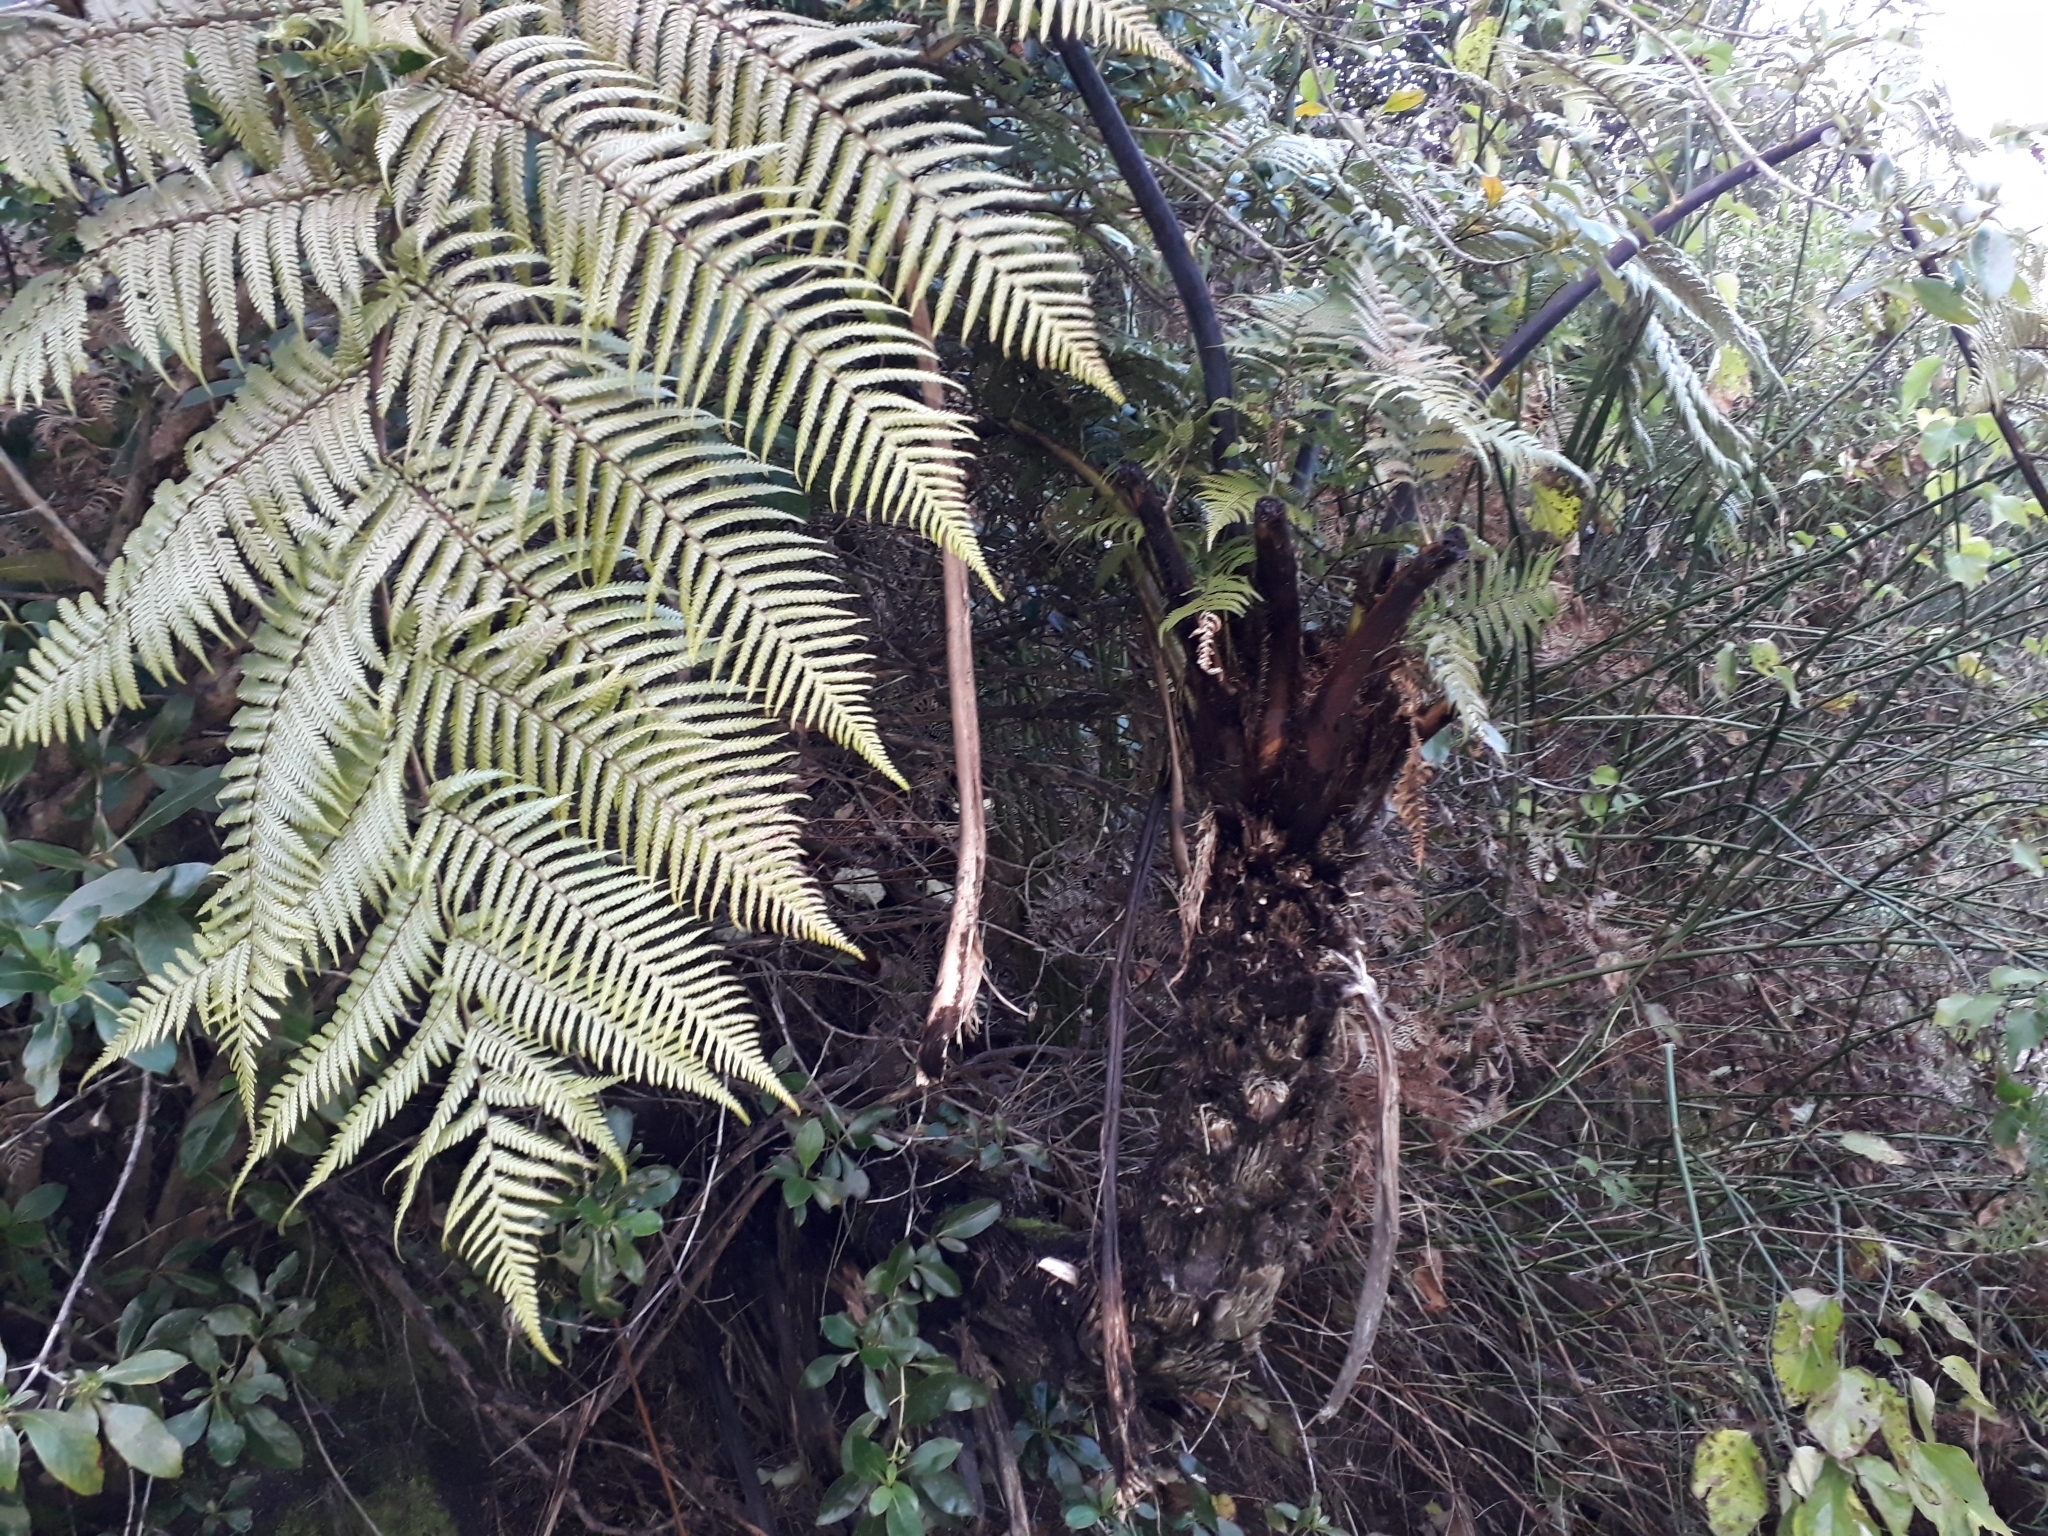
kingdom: Plantae
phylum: Tracheophyta
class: Polypodiopsida
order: Cyatheales
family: Cyatheaceae
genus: Sphaeropteris
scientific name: Sphaeropteris medullaris
